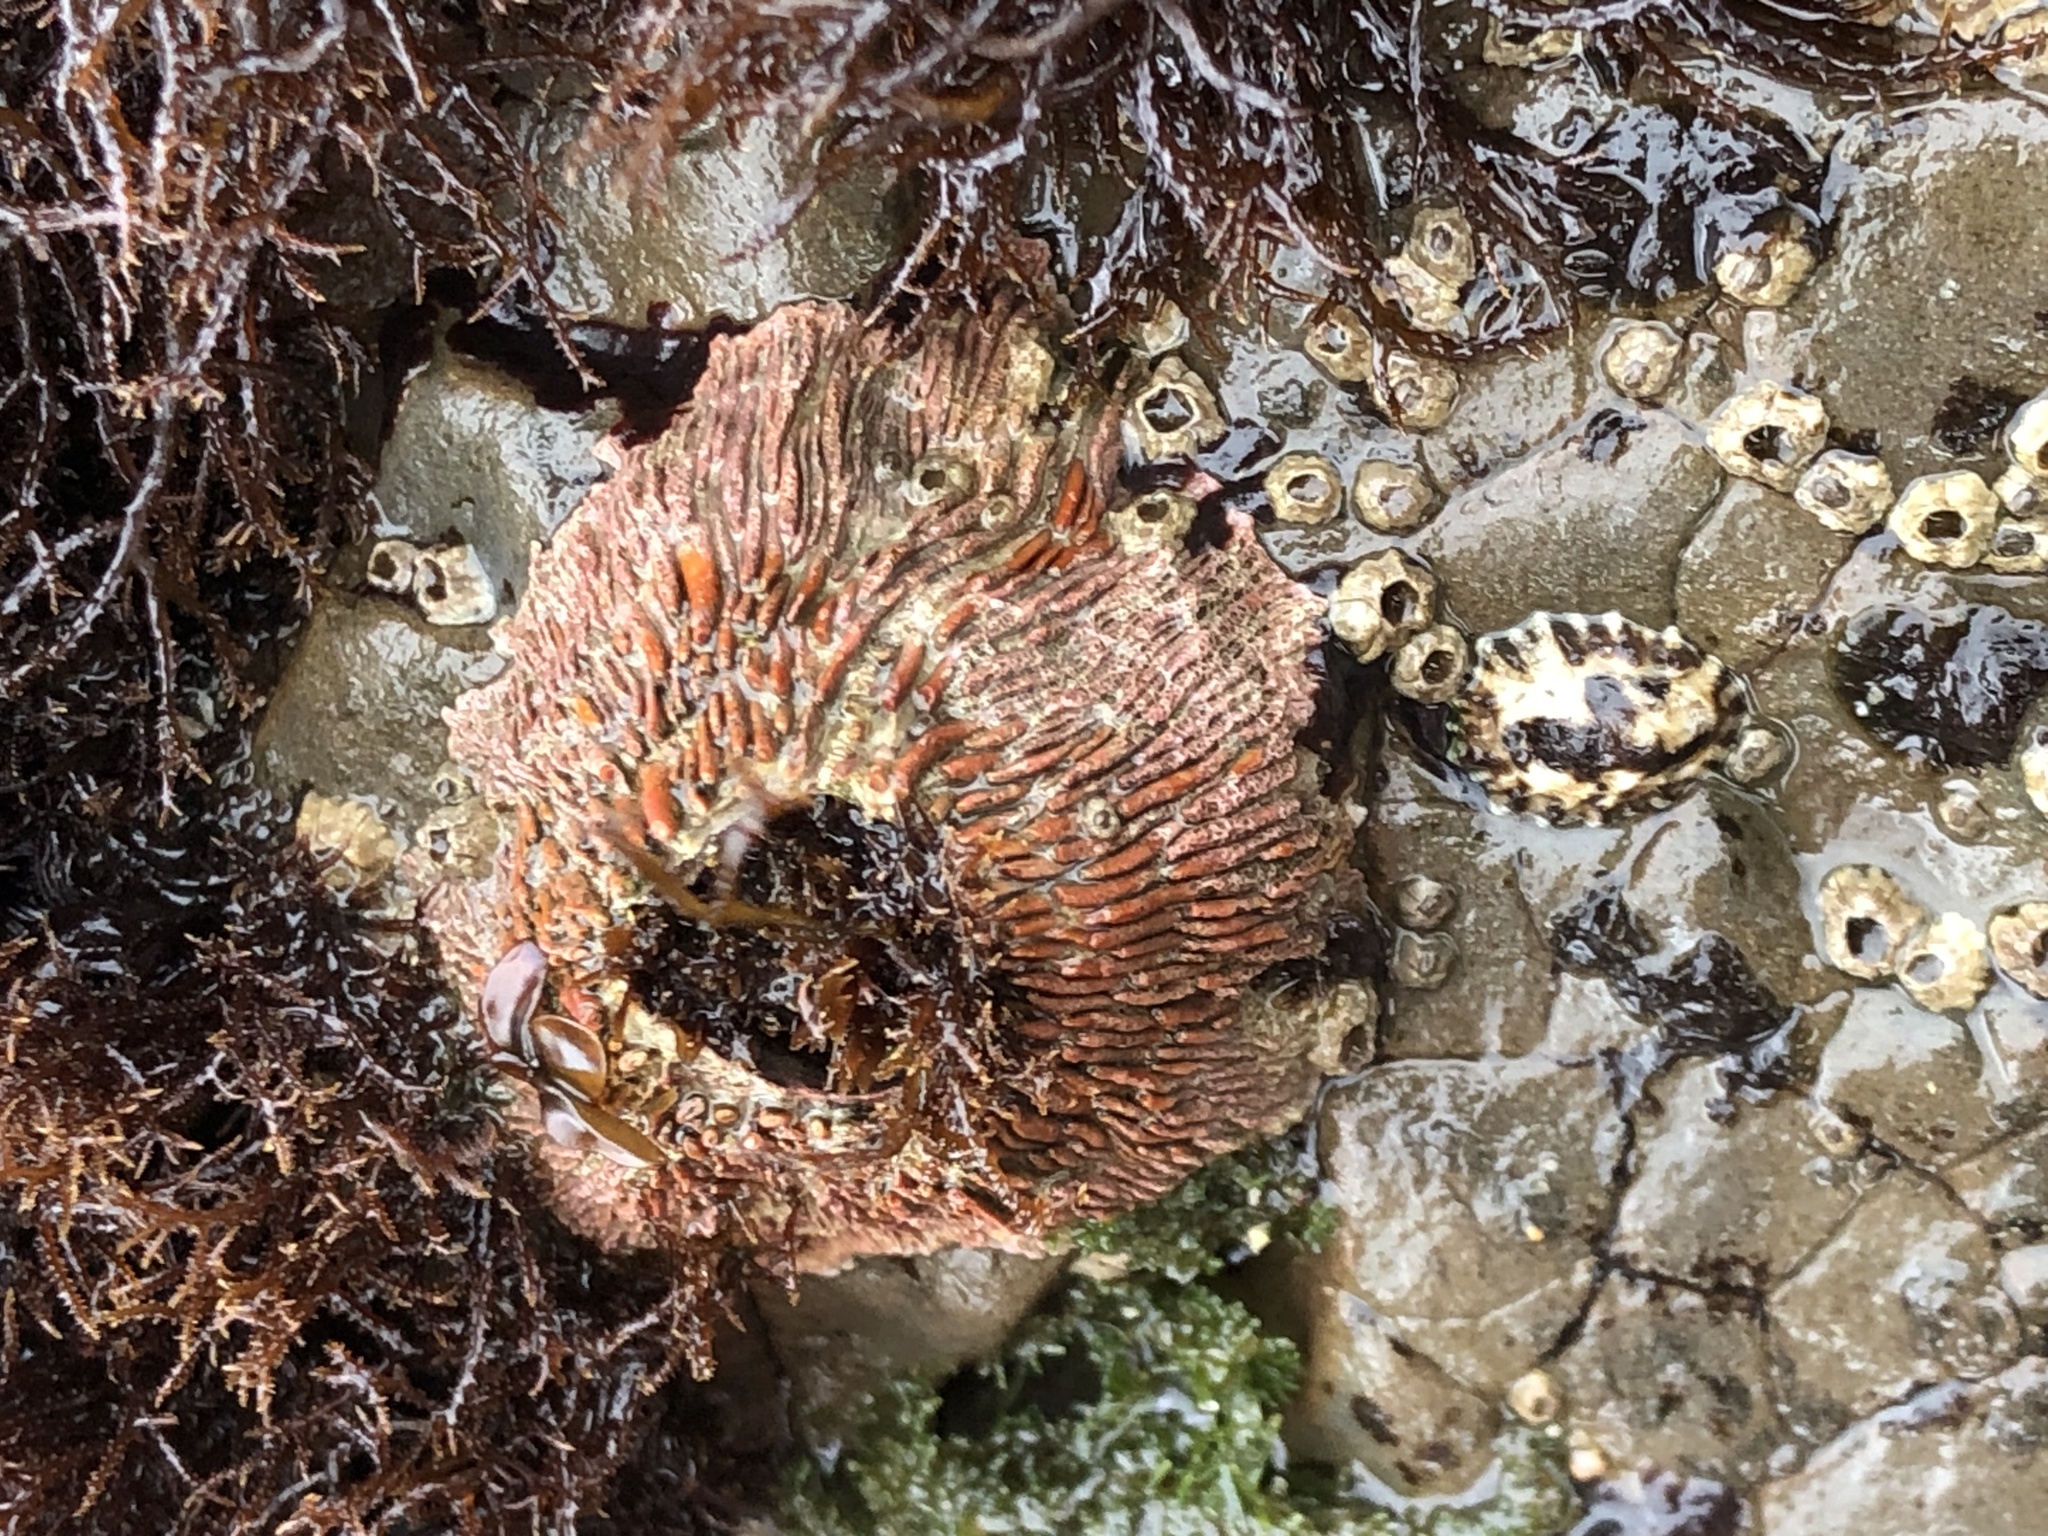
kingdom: Animalia
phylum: Arthropoda
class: Maxillopoda
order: Sessilia
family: Tetraclitidae
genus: Tetraclita
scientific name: Tetraclita rubescens
